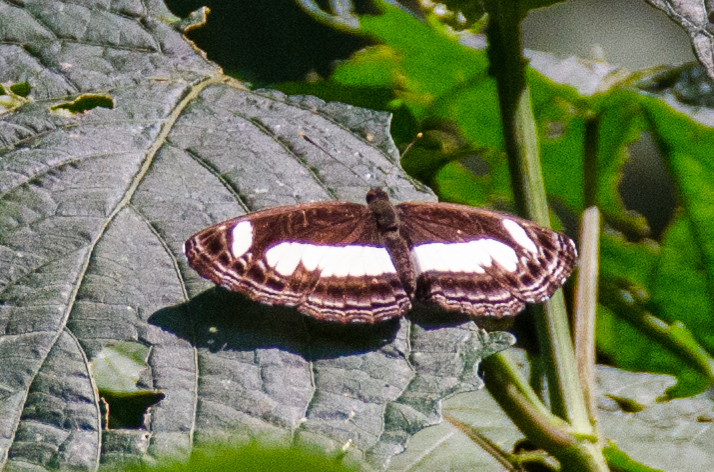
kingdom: Animalia
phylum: Arthropoda
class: Insecta
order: Lepidoptera
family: Nymphalidae
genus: Neptis
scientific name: Neptis nemetes
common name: Nemetes sailer
